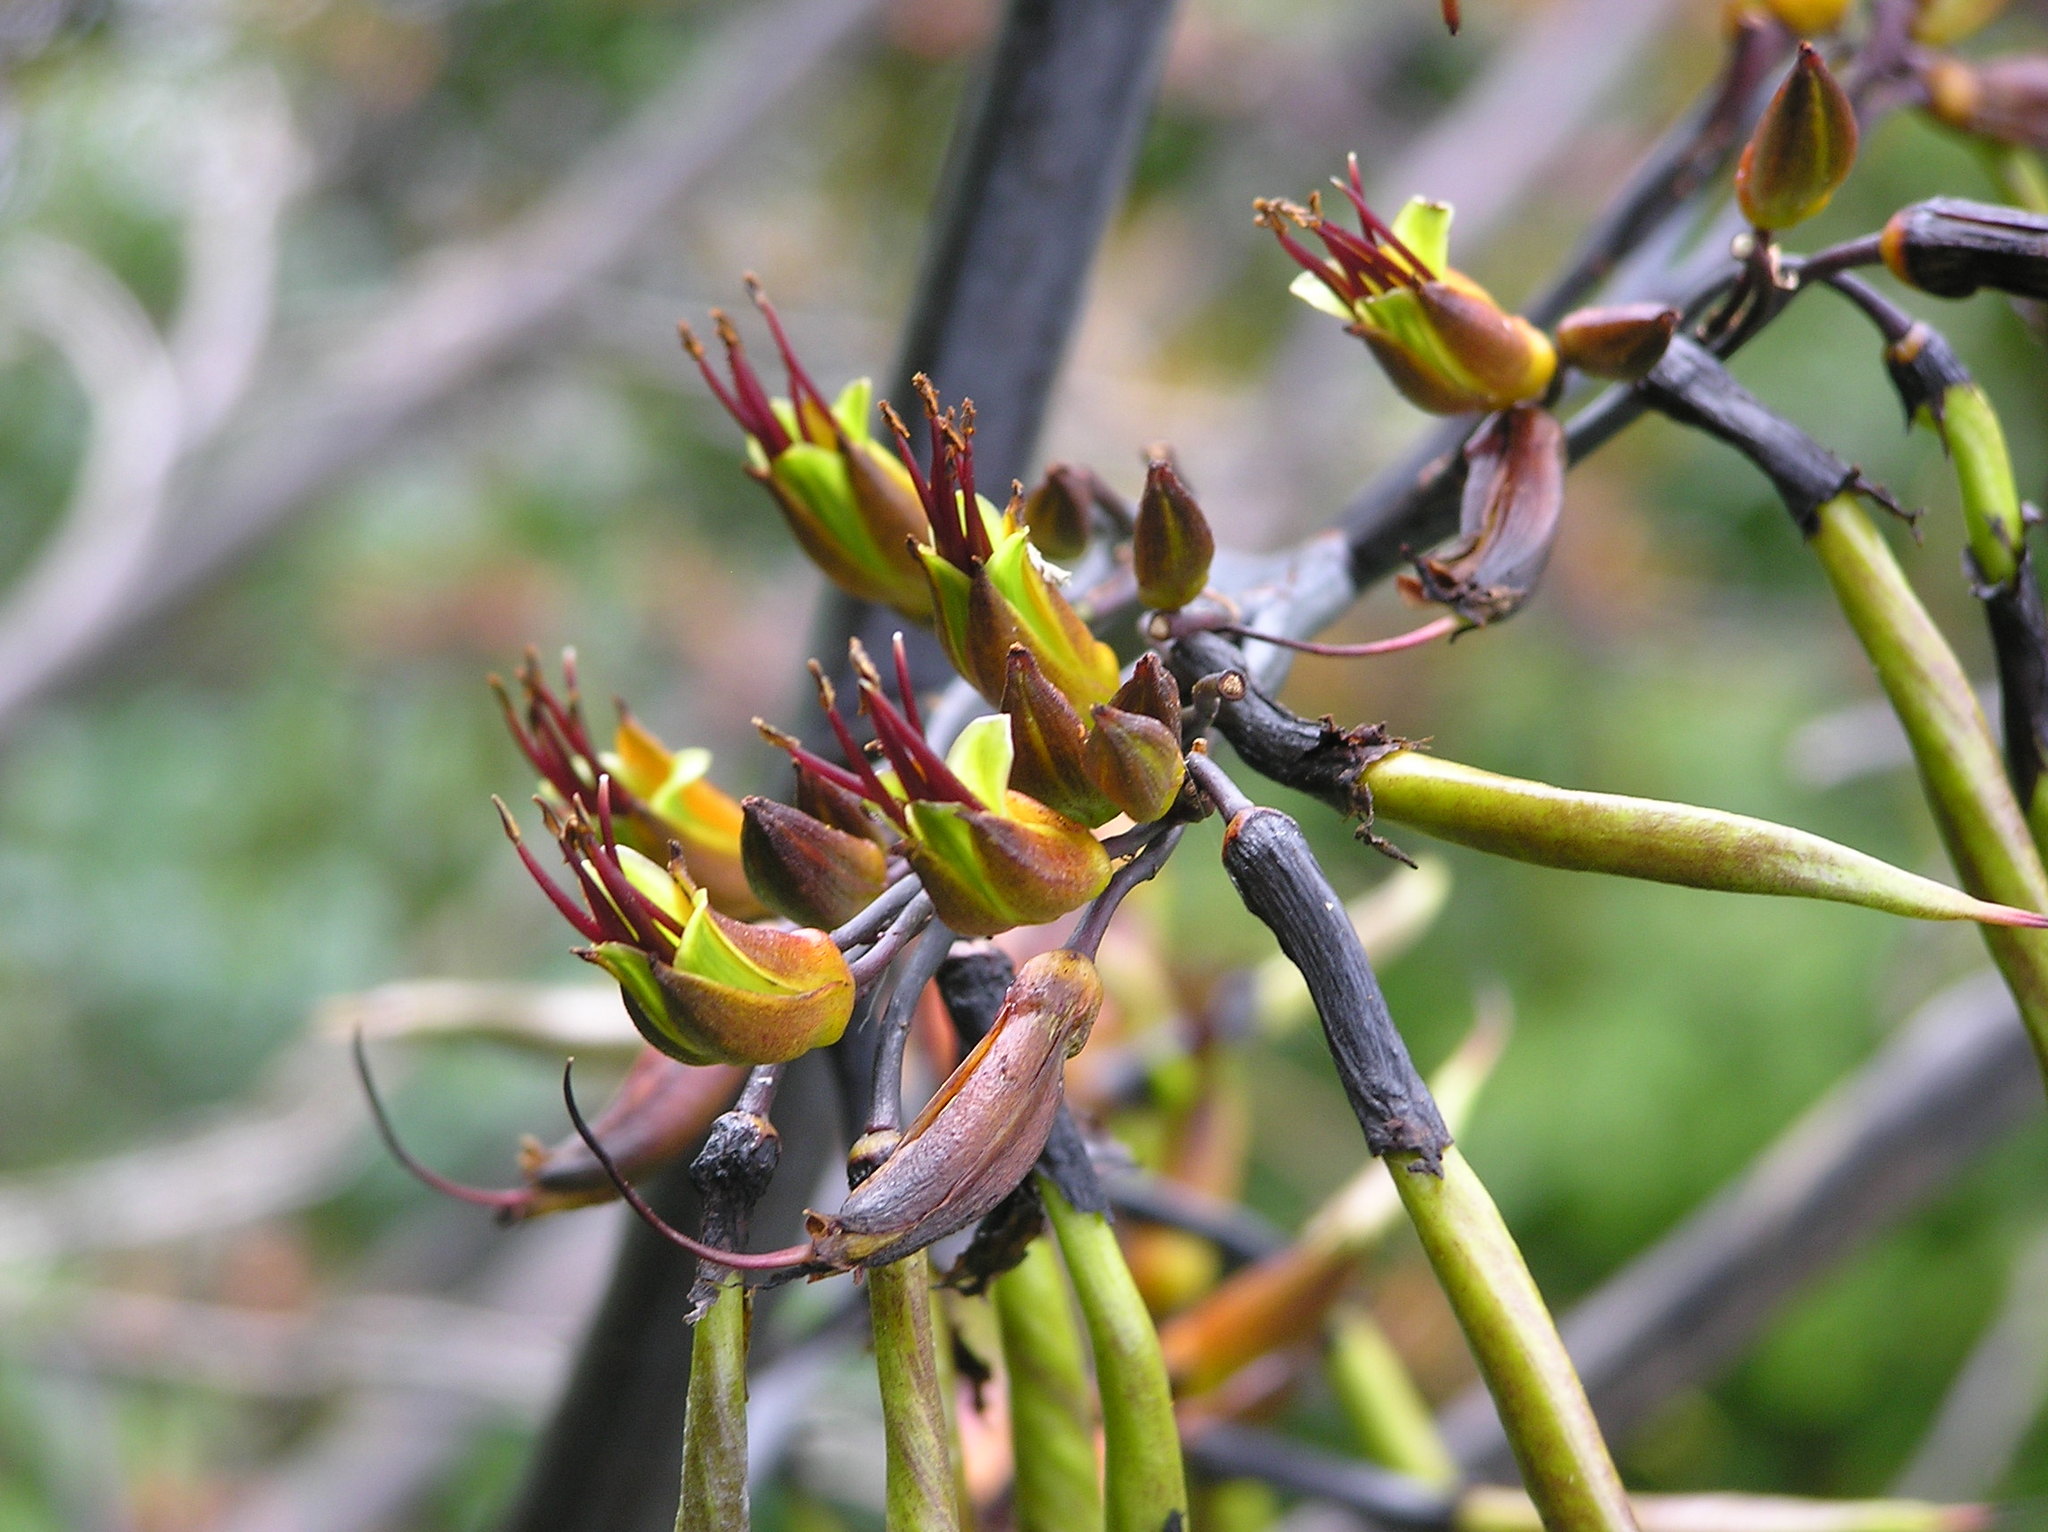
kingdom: Plantae
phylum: Tracheophyta
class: Liliopsida
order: Asparagales
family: Asphodelaceae
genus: Phormium
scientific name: Phormium colensoi
